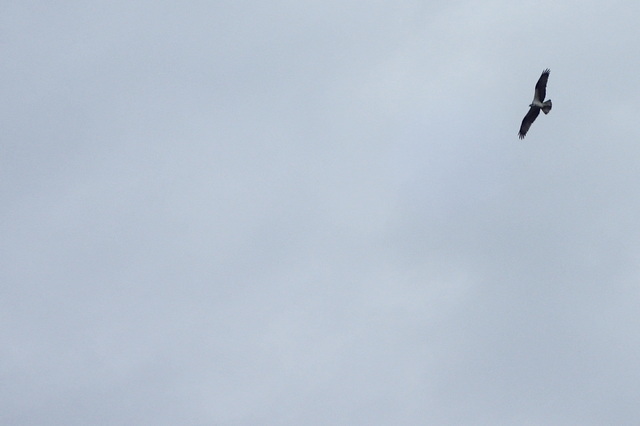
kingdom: Animalia
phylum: Chordata
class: Aves
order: Accipitriformes
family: Pandionidae
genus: Pandion
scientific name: Pandion haliaetus
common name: Osprey
